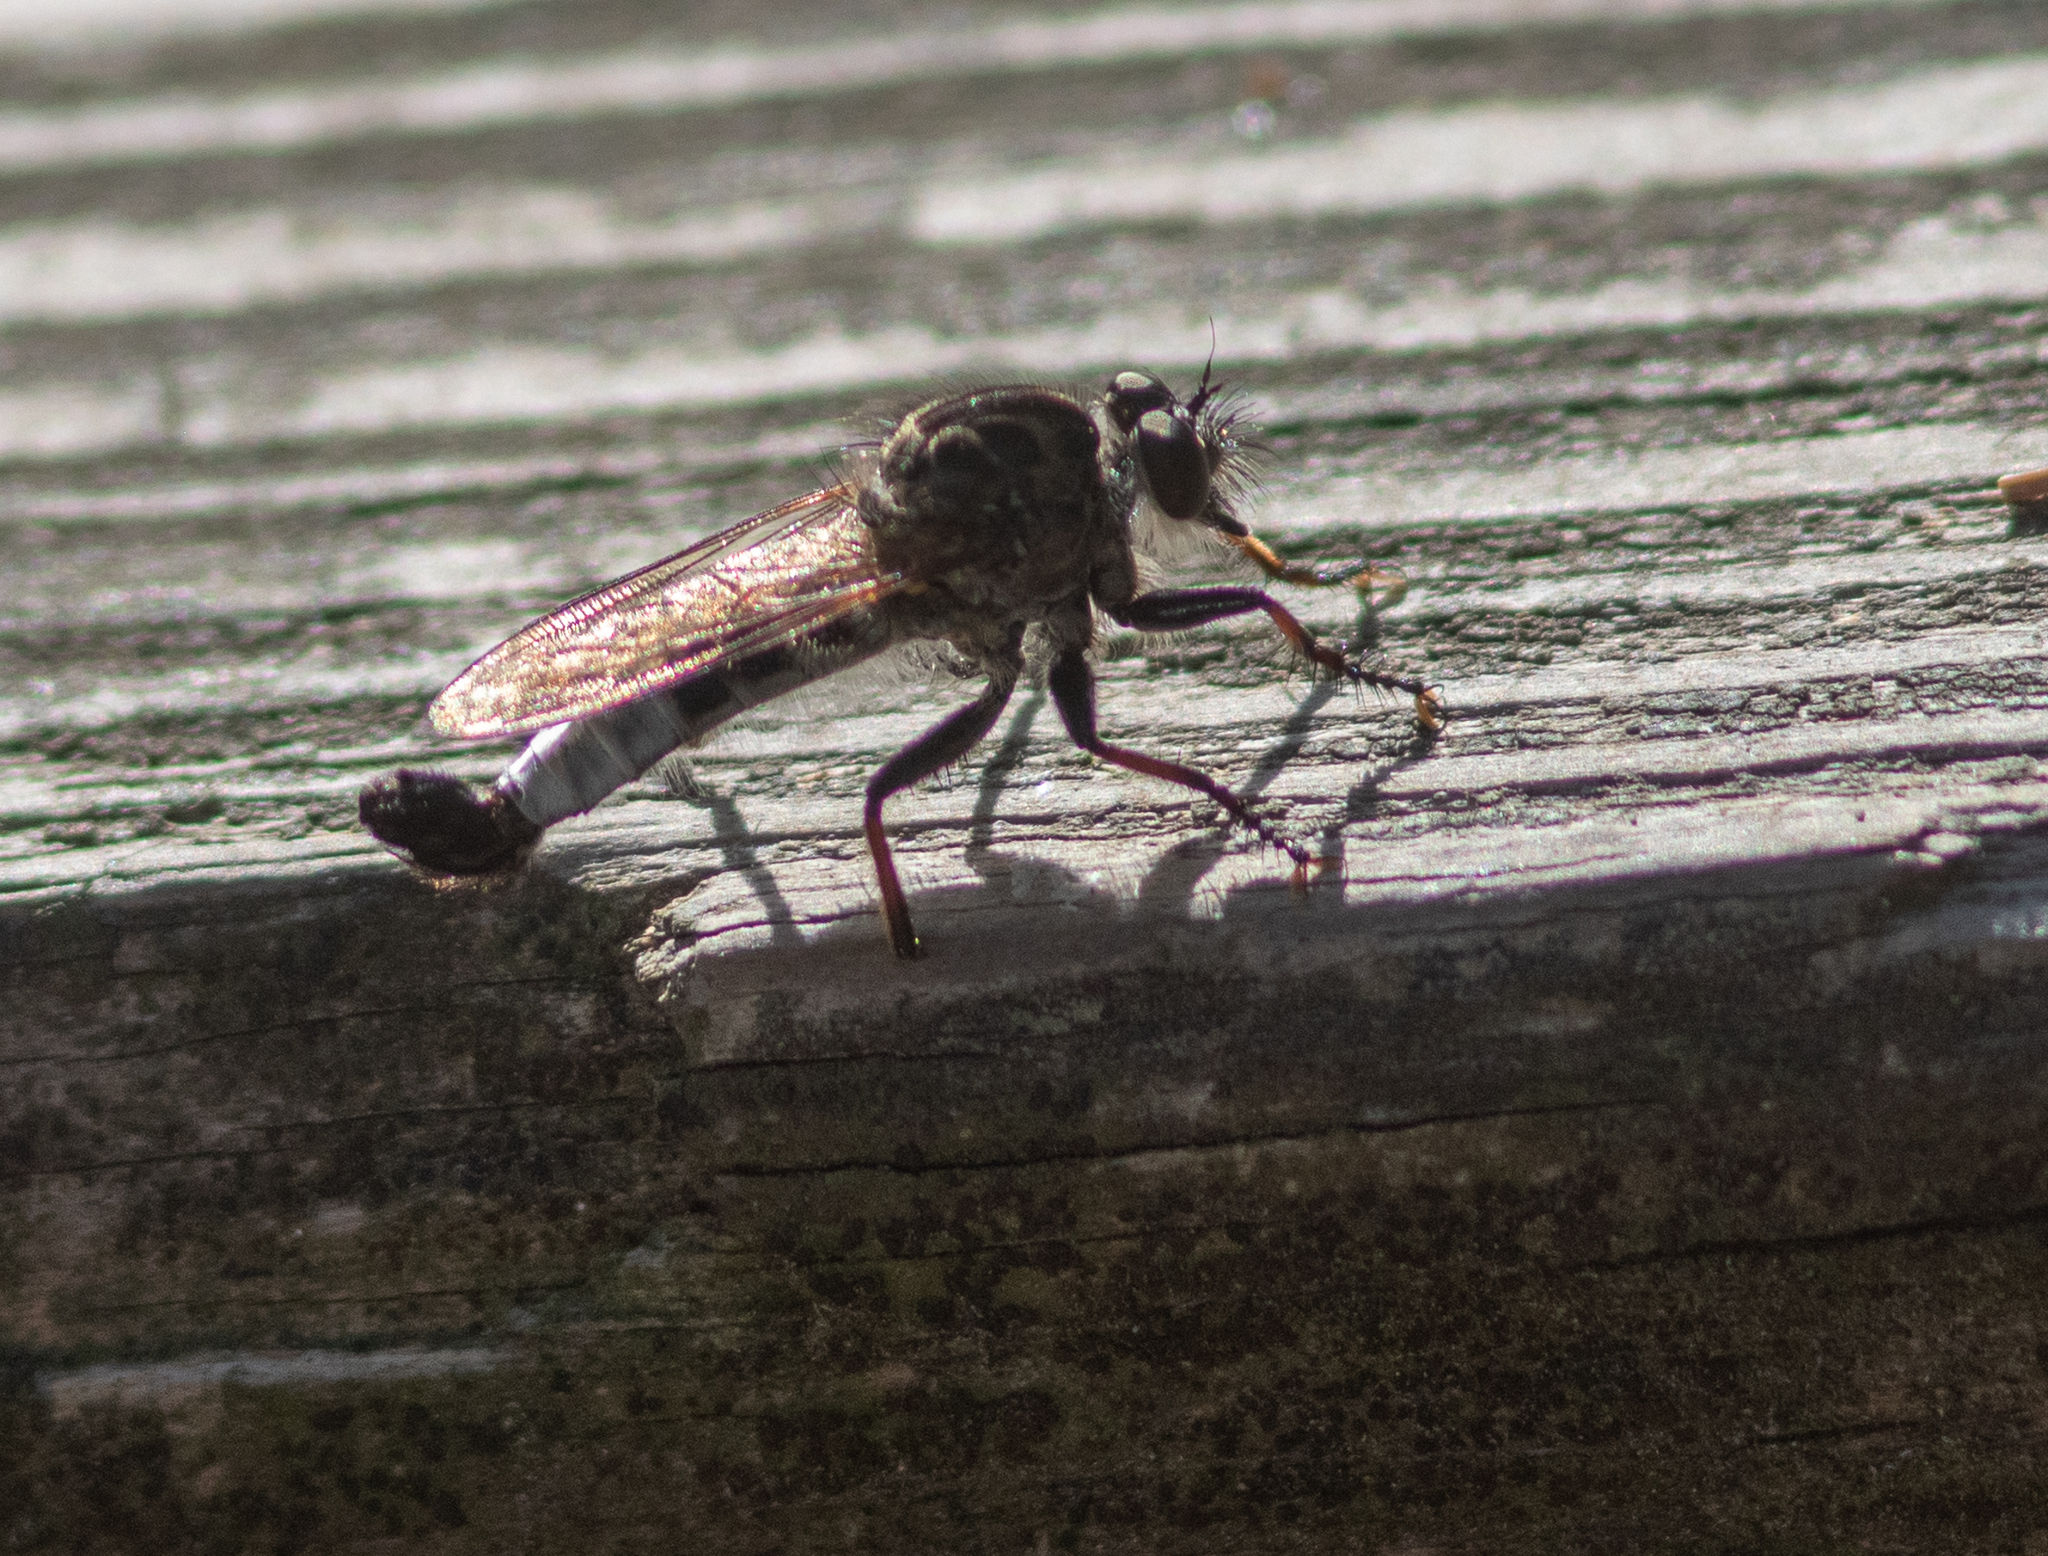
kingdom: Animalia
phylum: Arthropoda
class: Insecta
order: Diptera
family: Asilidae
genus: Efferia
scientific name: Efferia aestuans
